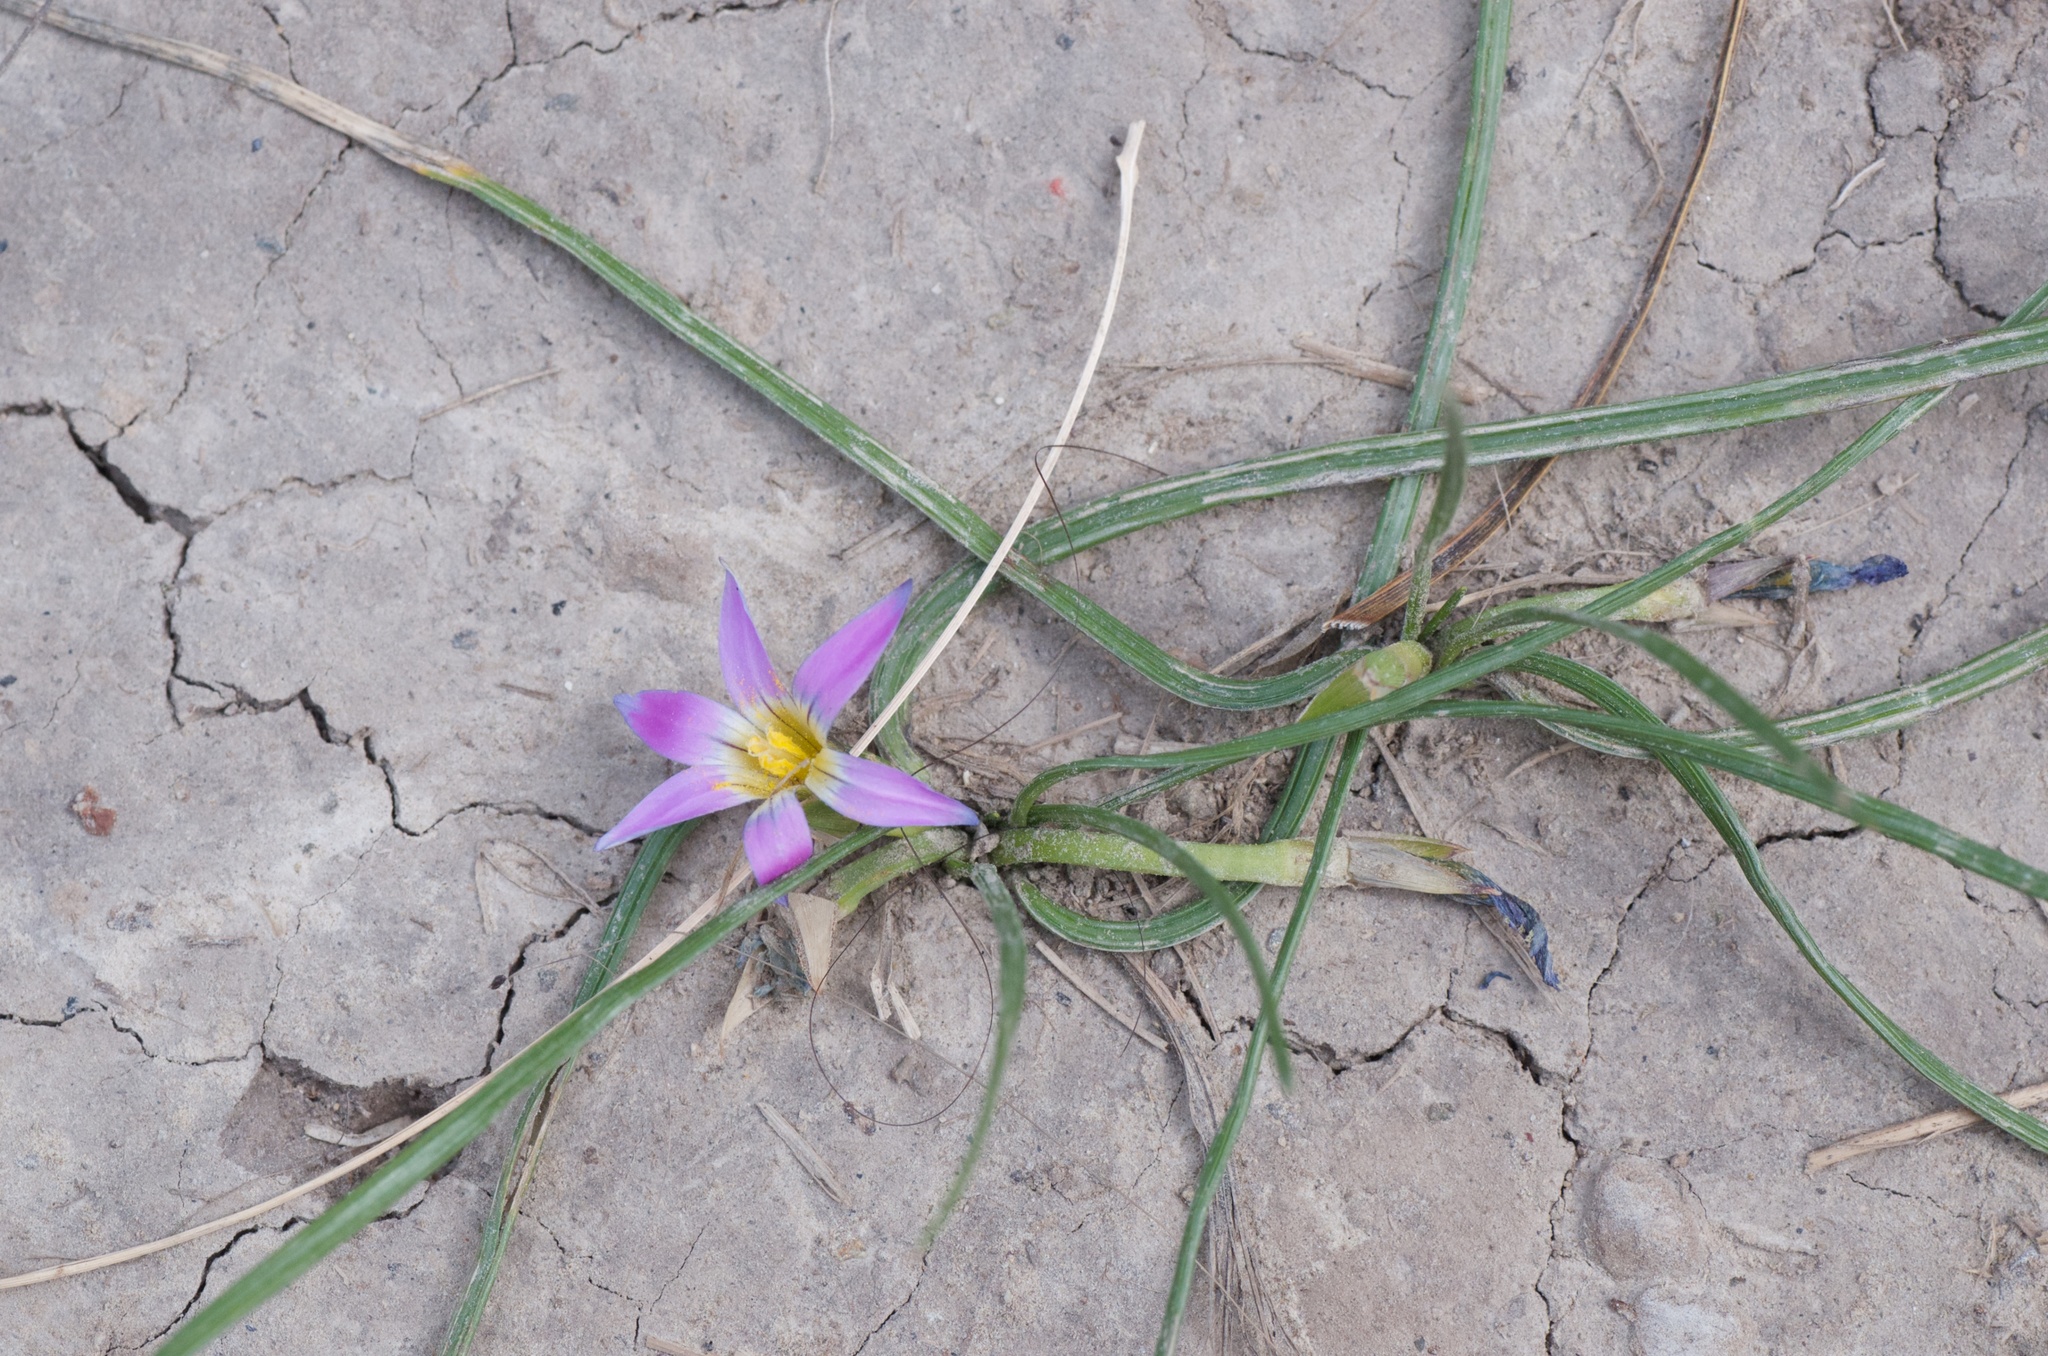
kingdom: Plantae
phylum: Tracheophyta
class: Liliopsida
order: Asparagales
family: Iridaceae
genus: Romulea
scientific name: Romulea rosea
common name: Oniongrass
